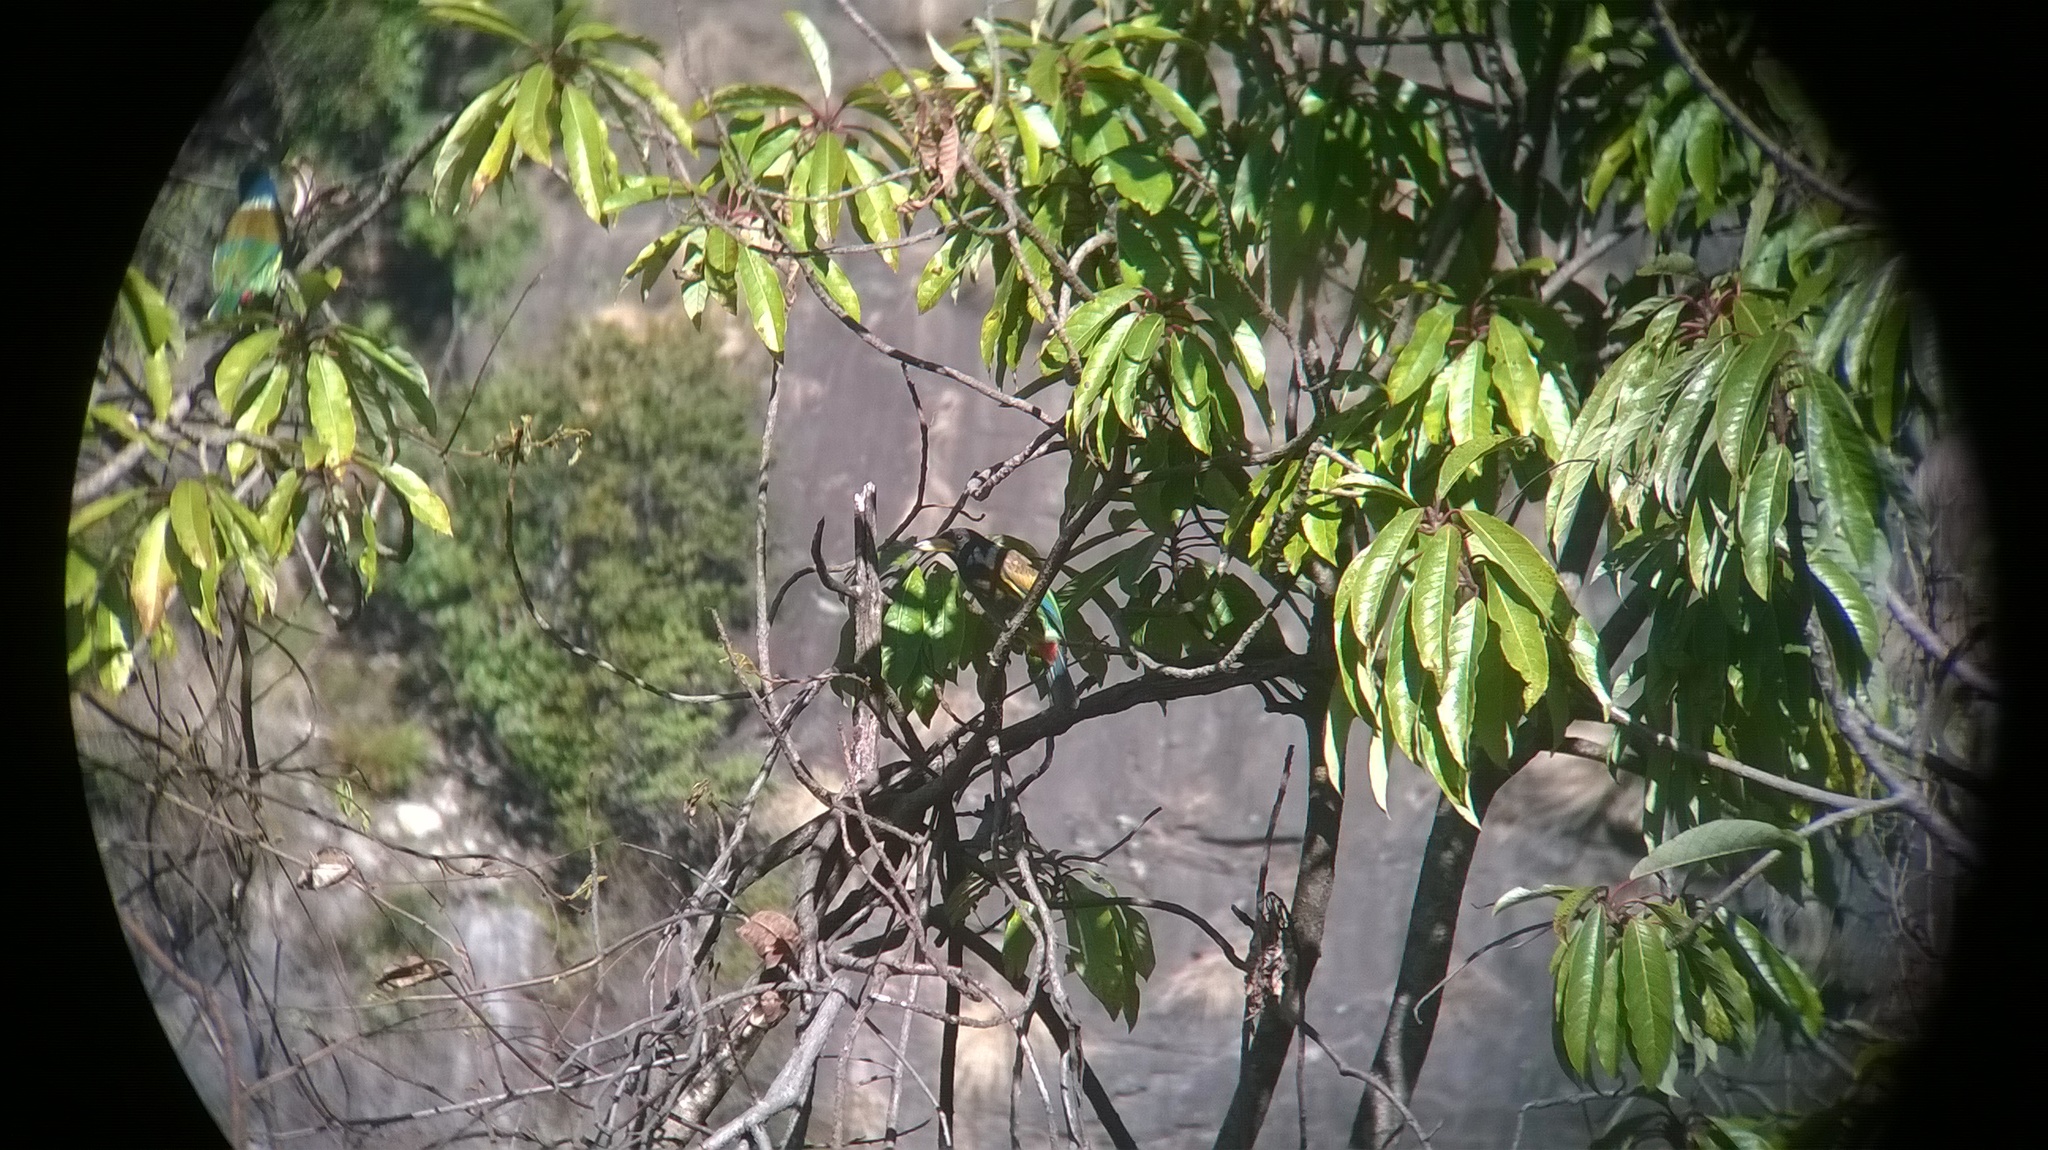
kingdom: Animalia
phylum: Chordata
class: Aves
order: Piciformes
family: Megalaimidae
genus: Psilopogon
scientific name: Psilopogon virens
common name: Great barbet
